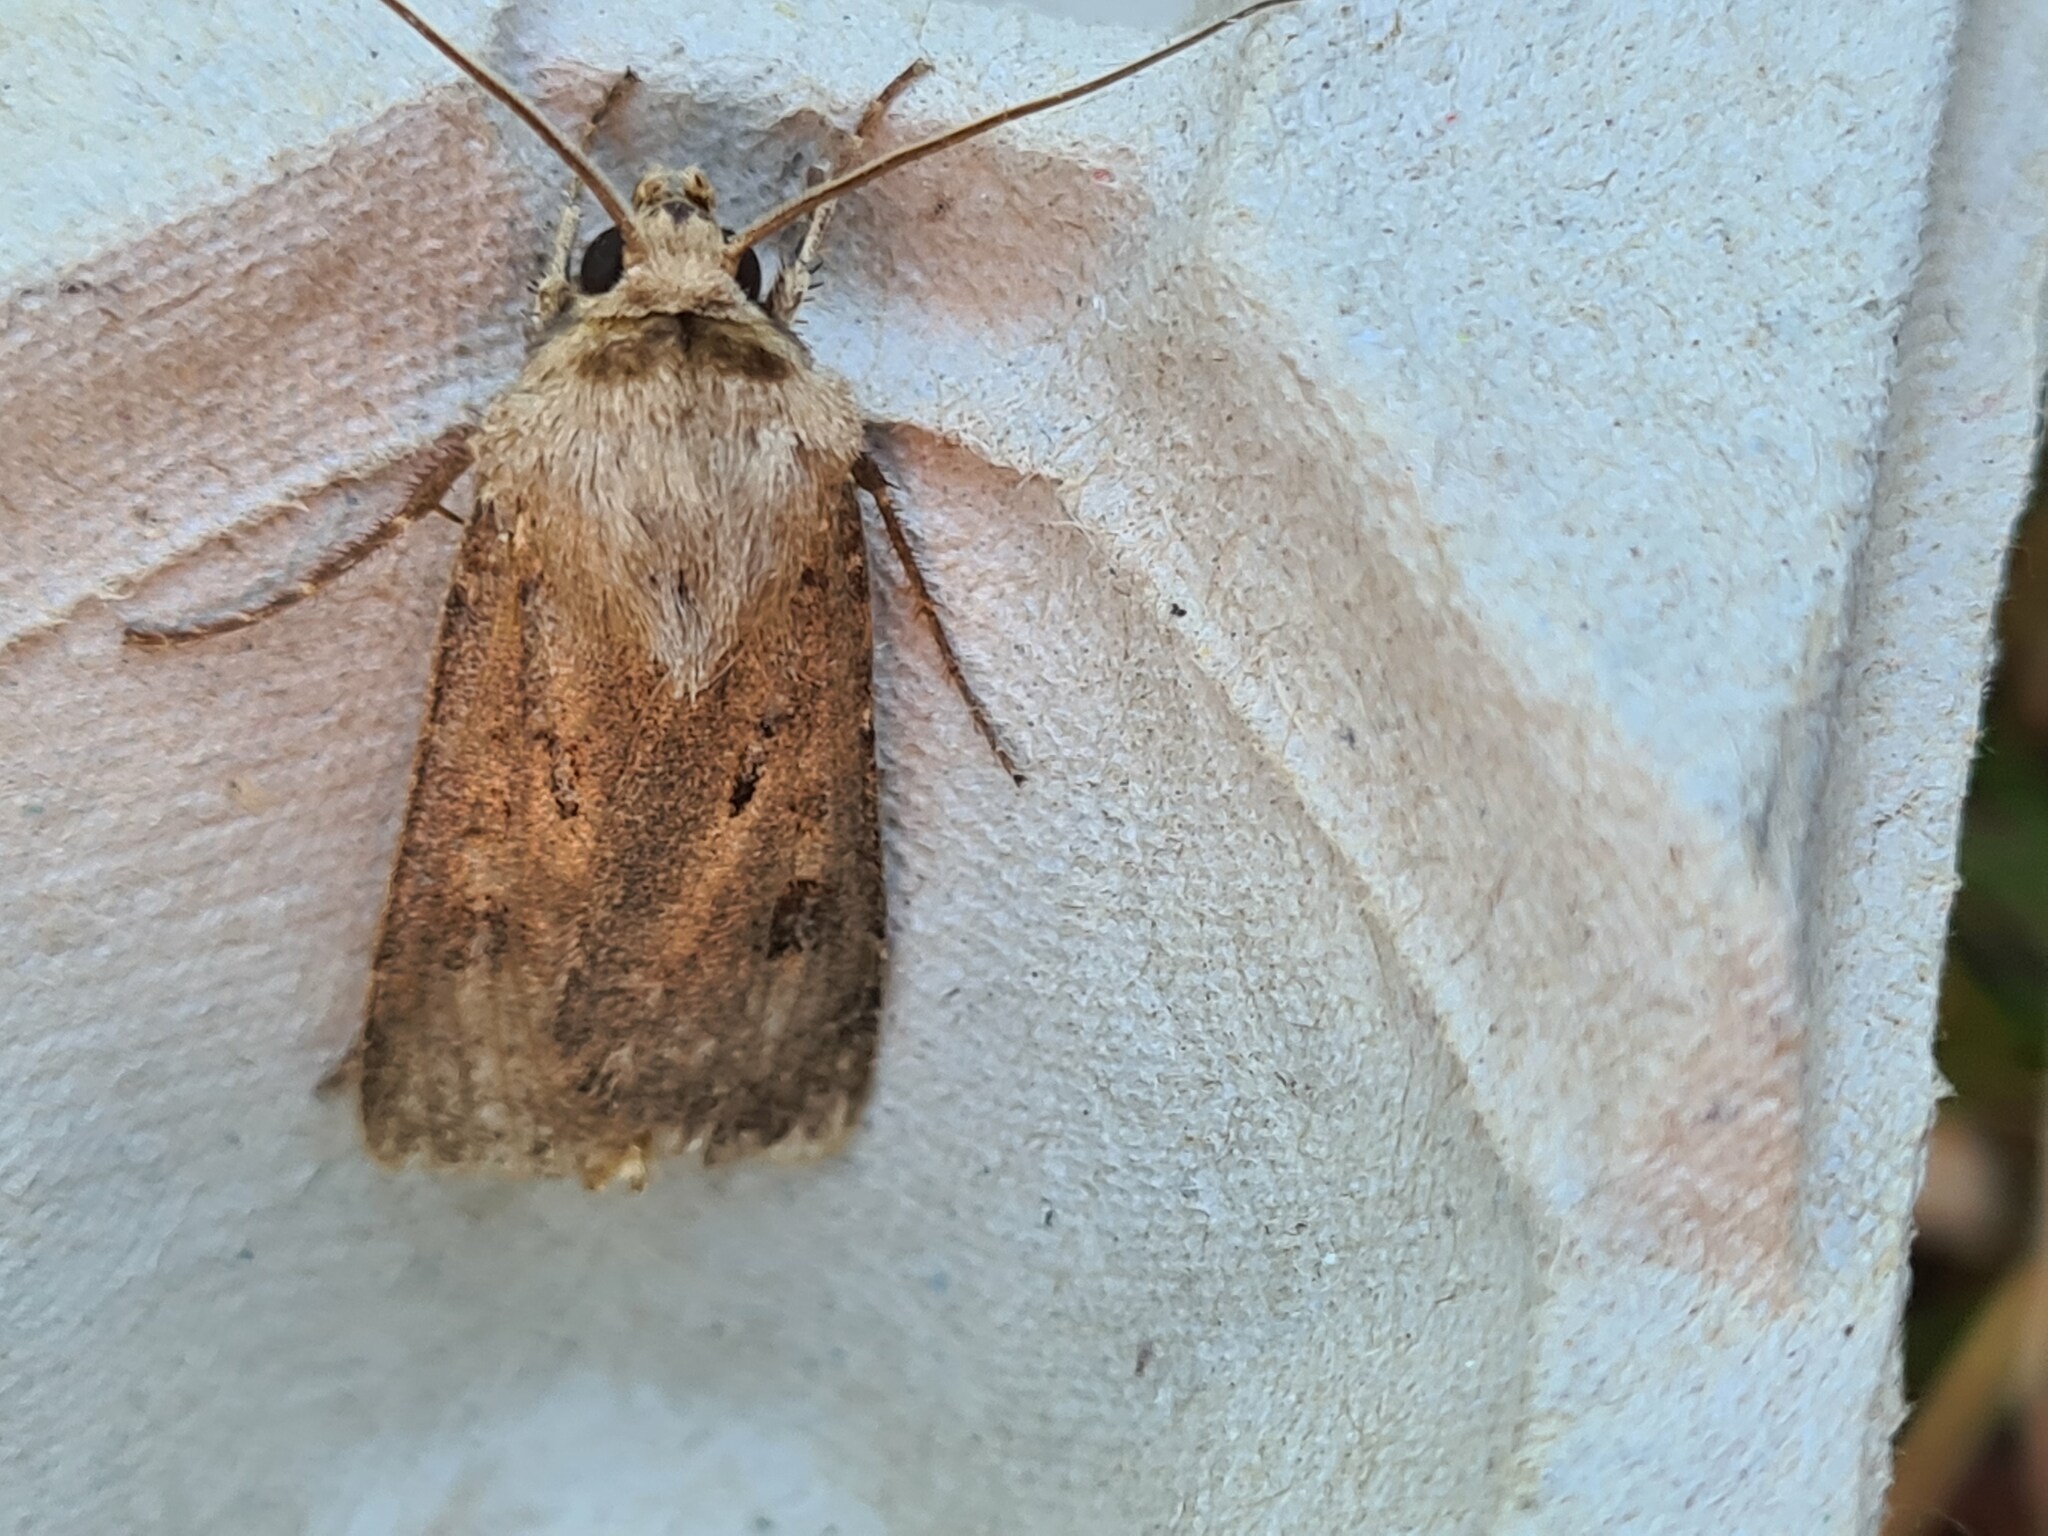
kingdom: Animalia
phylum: Arthropoda
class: Insecta
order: Lepidoptera
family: Noctuidae
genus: Agrotis
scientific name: Agrotis exclamationis
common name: Heart and dart
